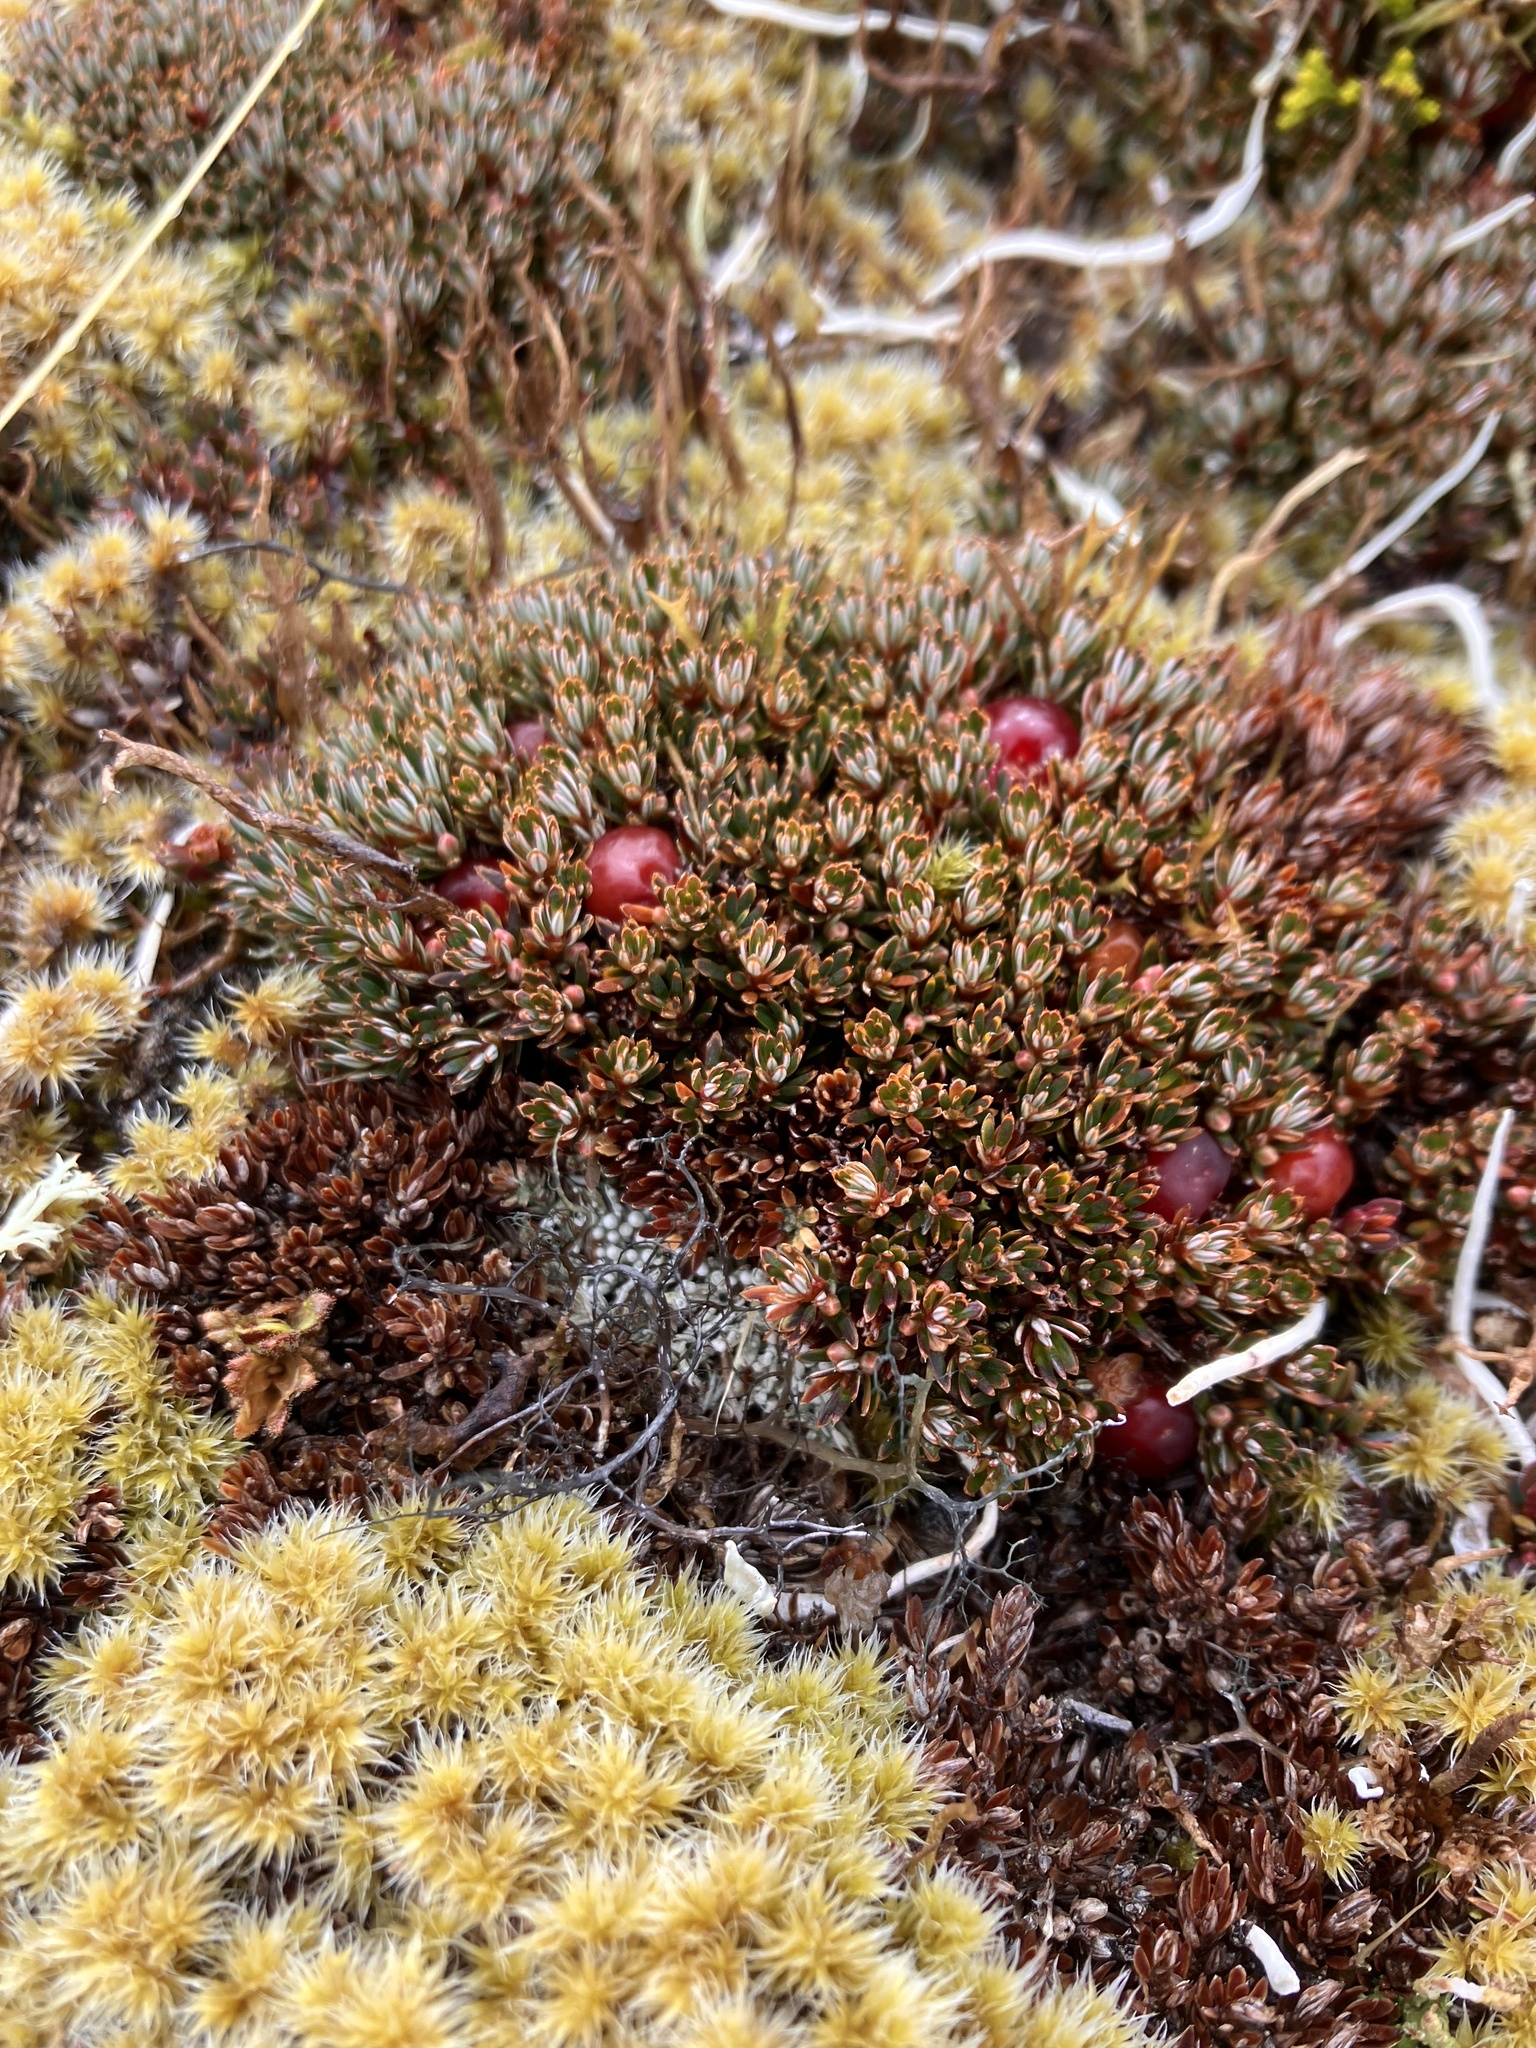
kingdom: Plantae
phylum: Tracheophyta
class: Magnoliopsida
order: Ericales
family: Ericaceae
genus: Pentachondra
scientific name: Pentachondra pumila
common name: Carpet-heath
